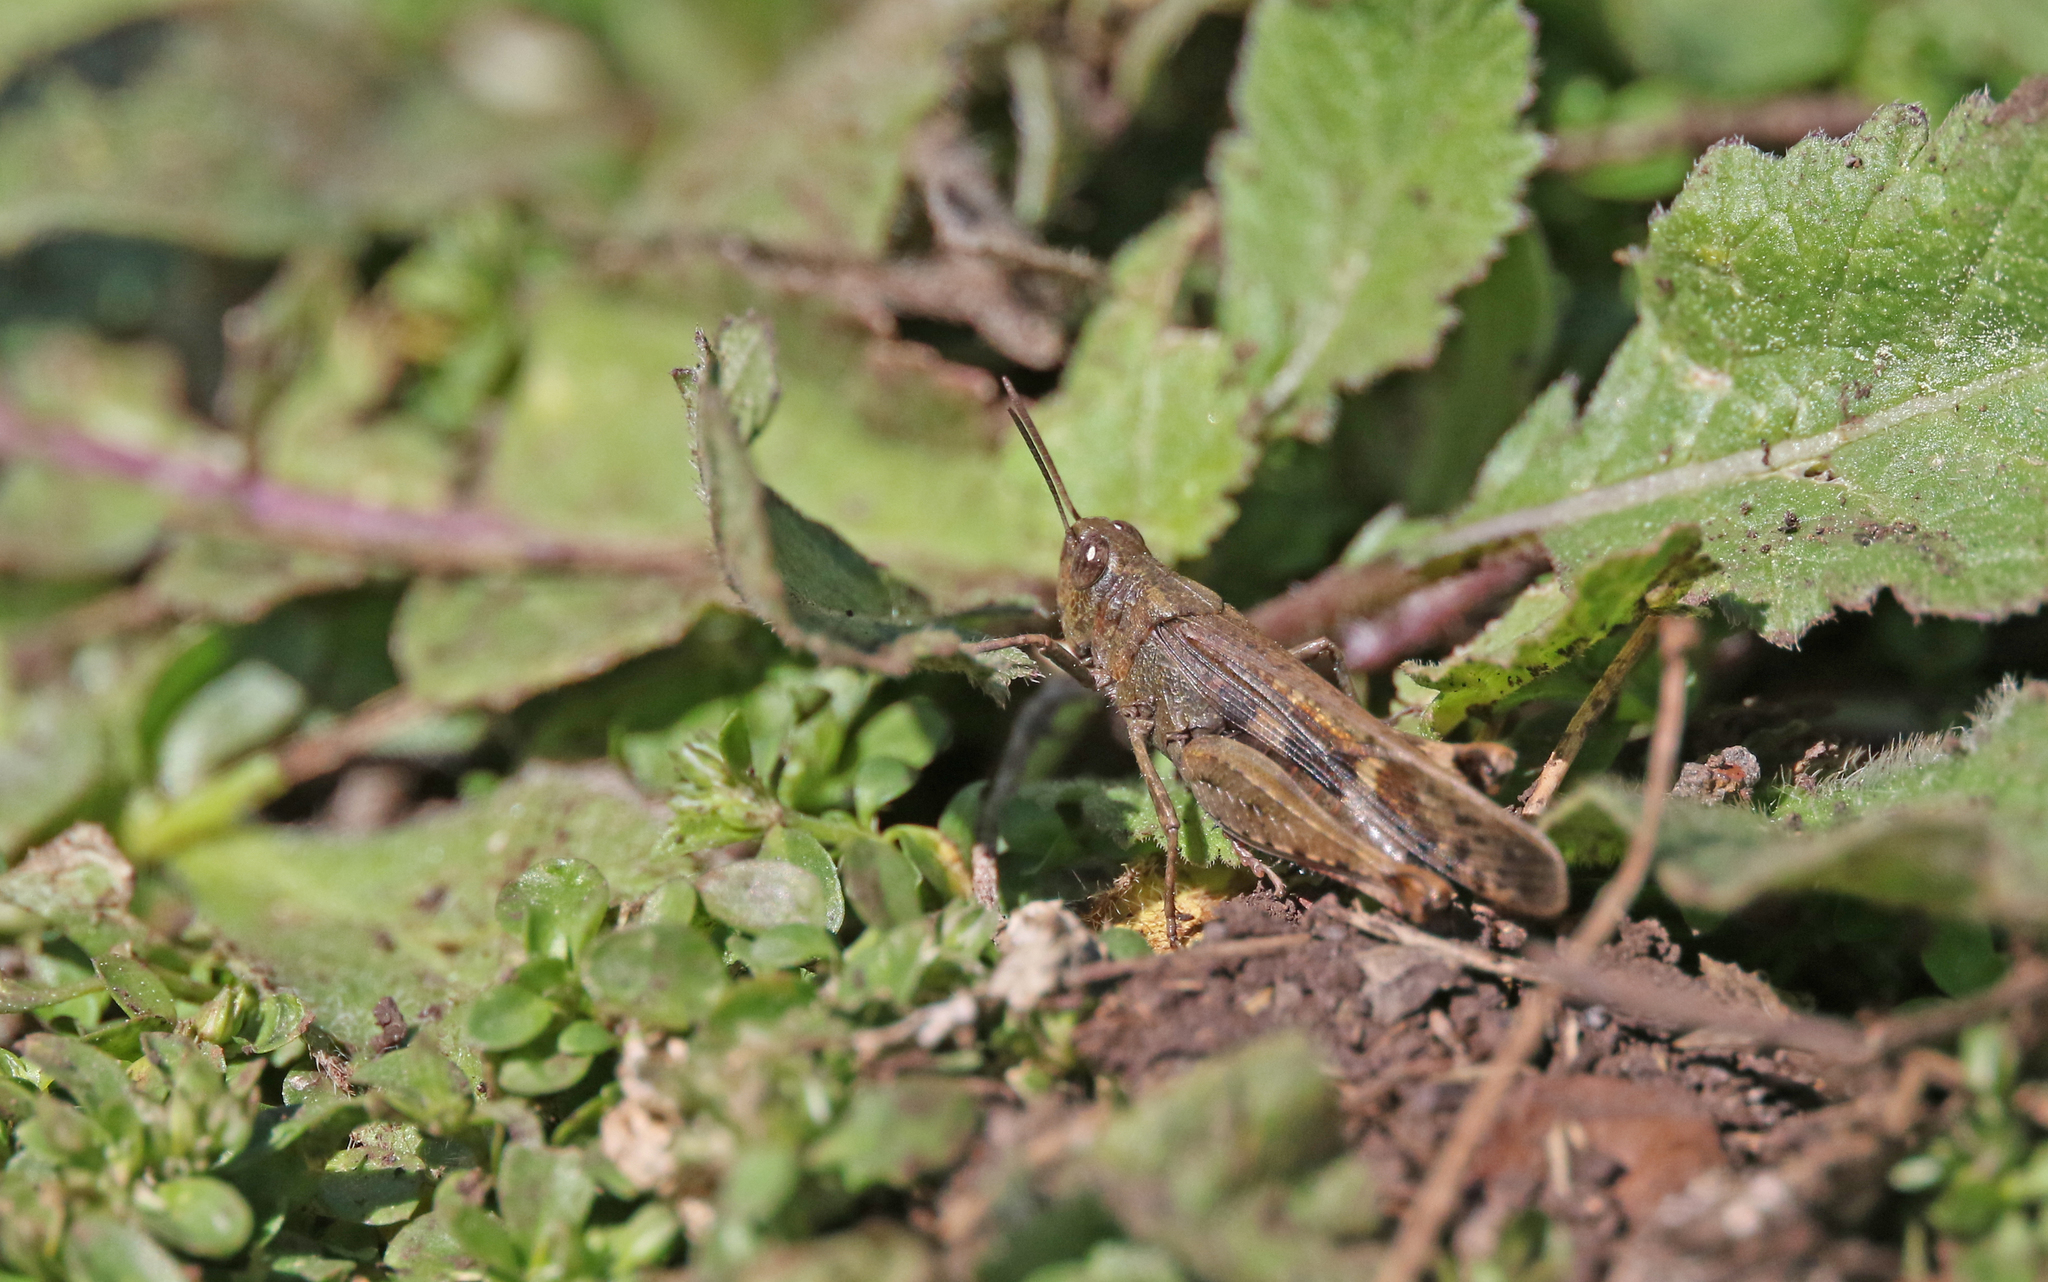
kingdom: Animalia
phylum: Arthropoda
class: Insecta
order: Orthoptera
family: Acrididae
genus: Aiolopus
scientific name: Aiolopus strepens
